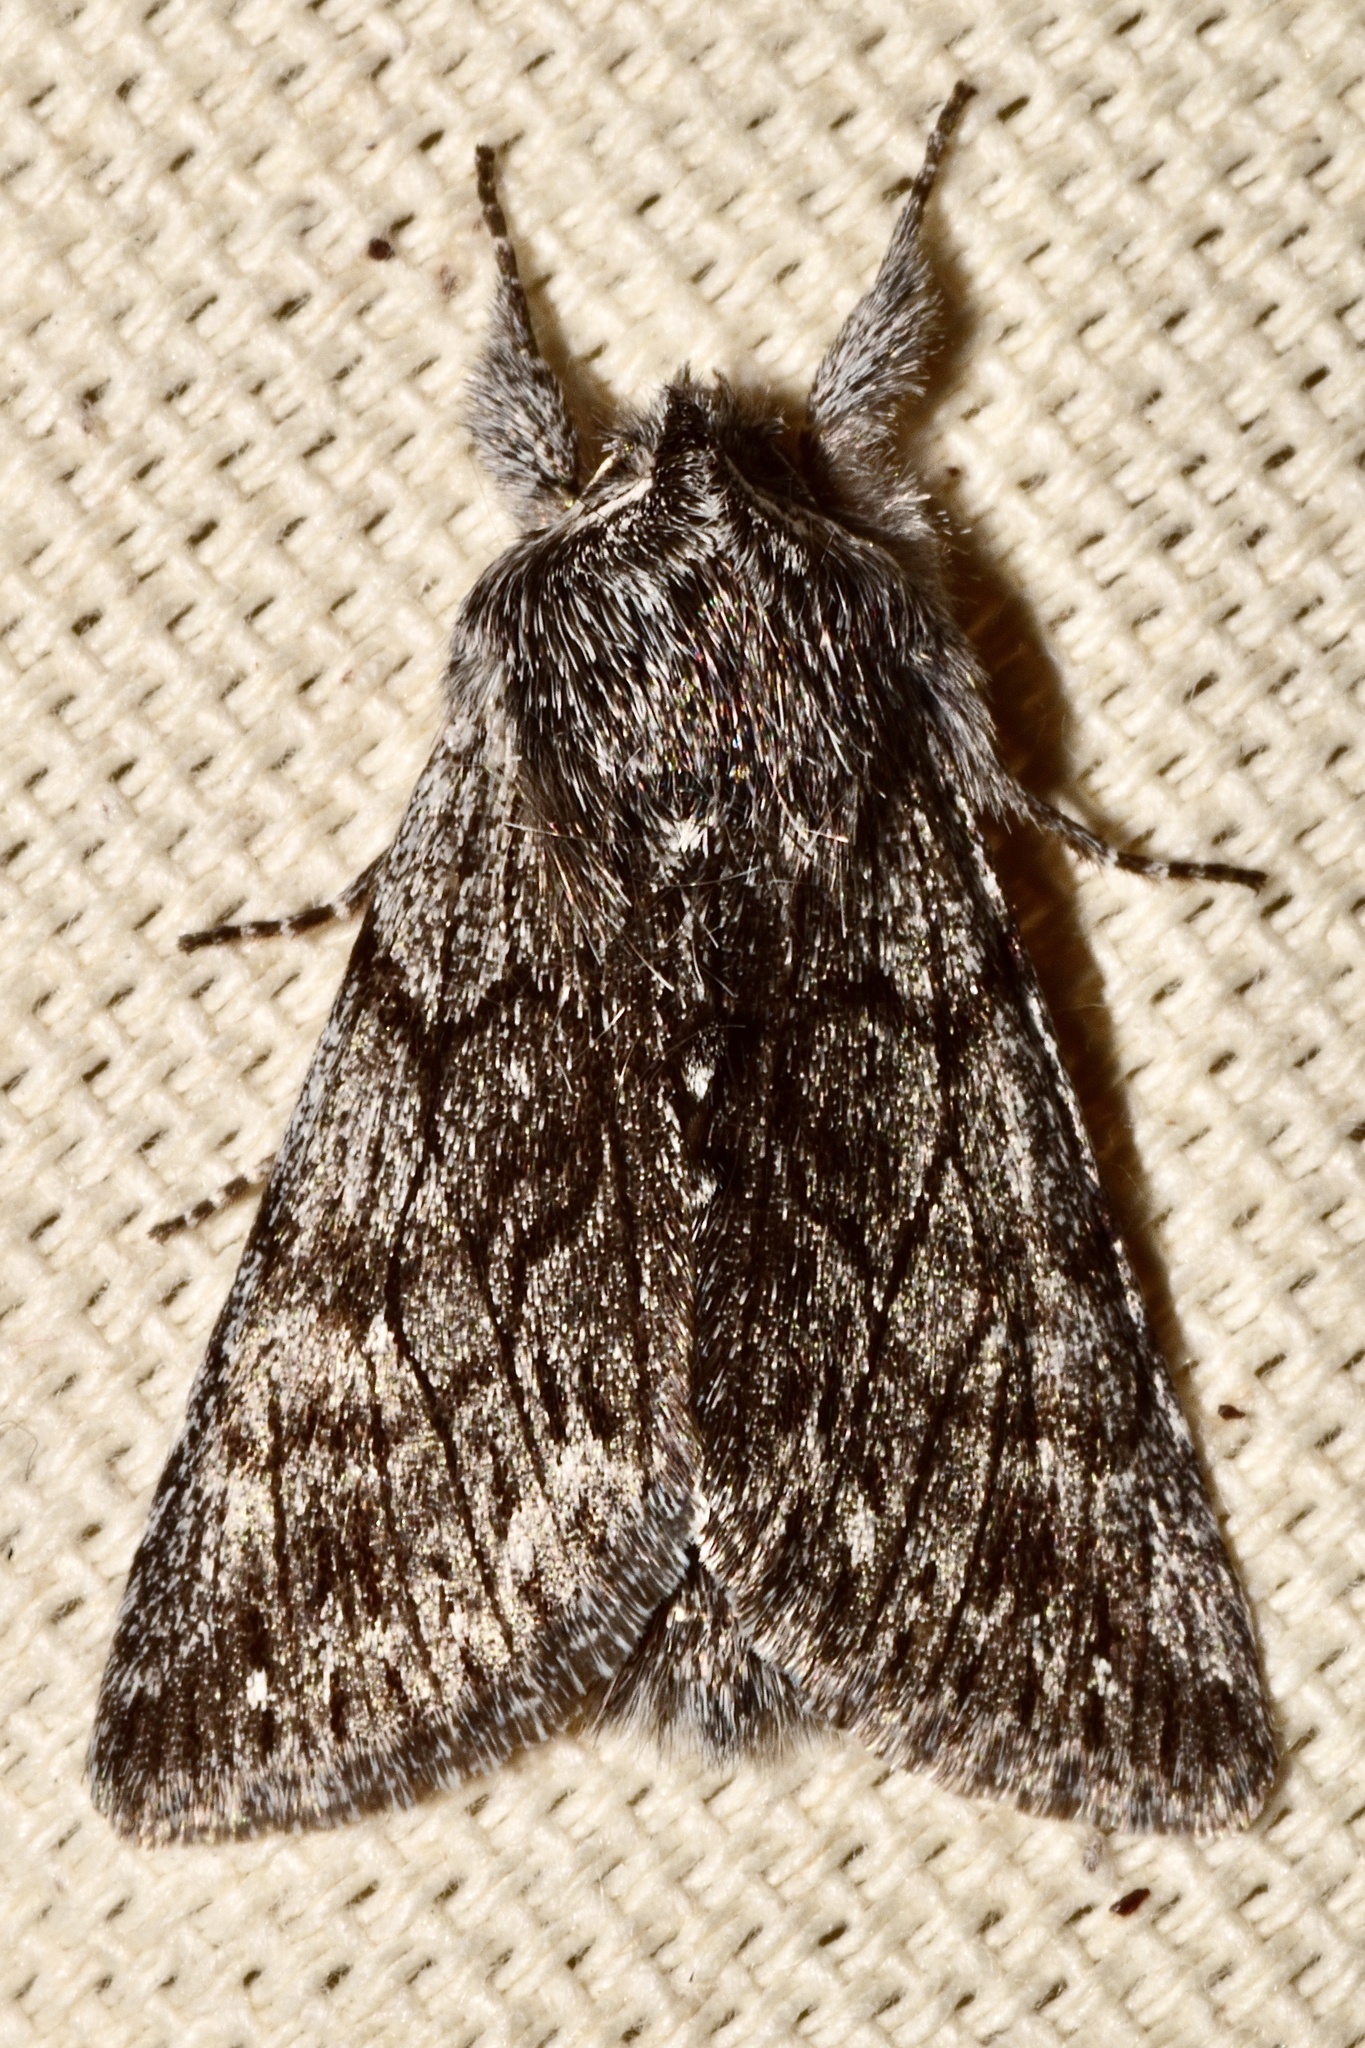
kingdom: Animalia
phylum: Arthropoda
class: Insecta
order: Lepidoptera
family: Noctuidae
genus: Pleromelloida
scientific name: Pleromelloida conserta
